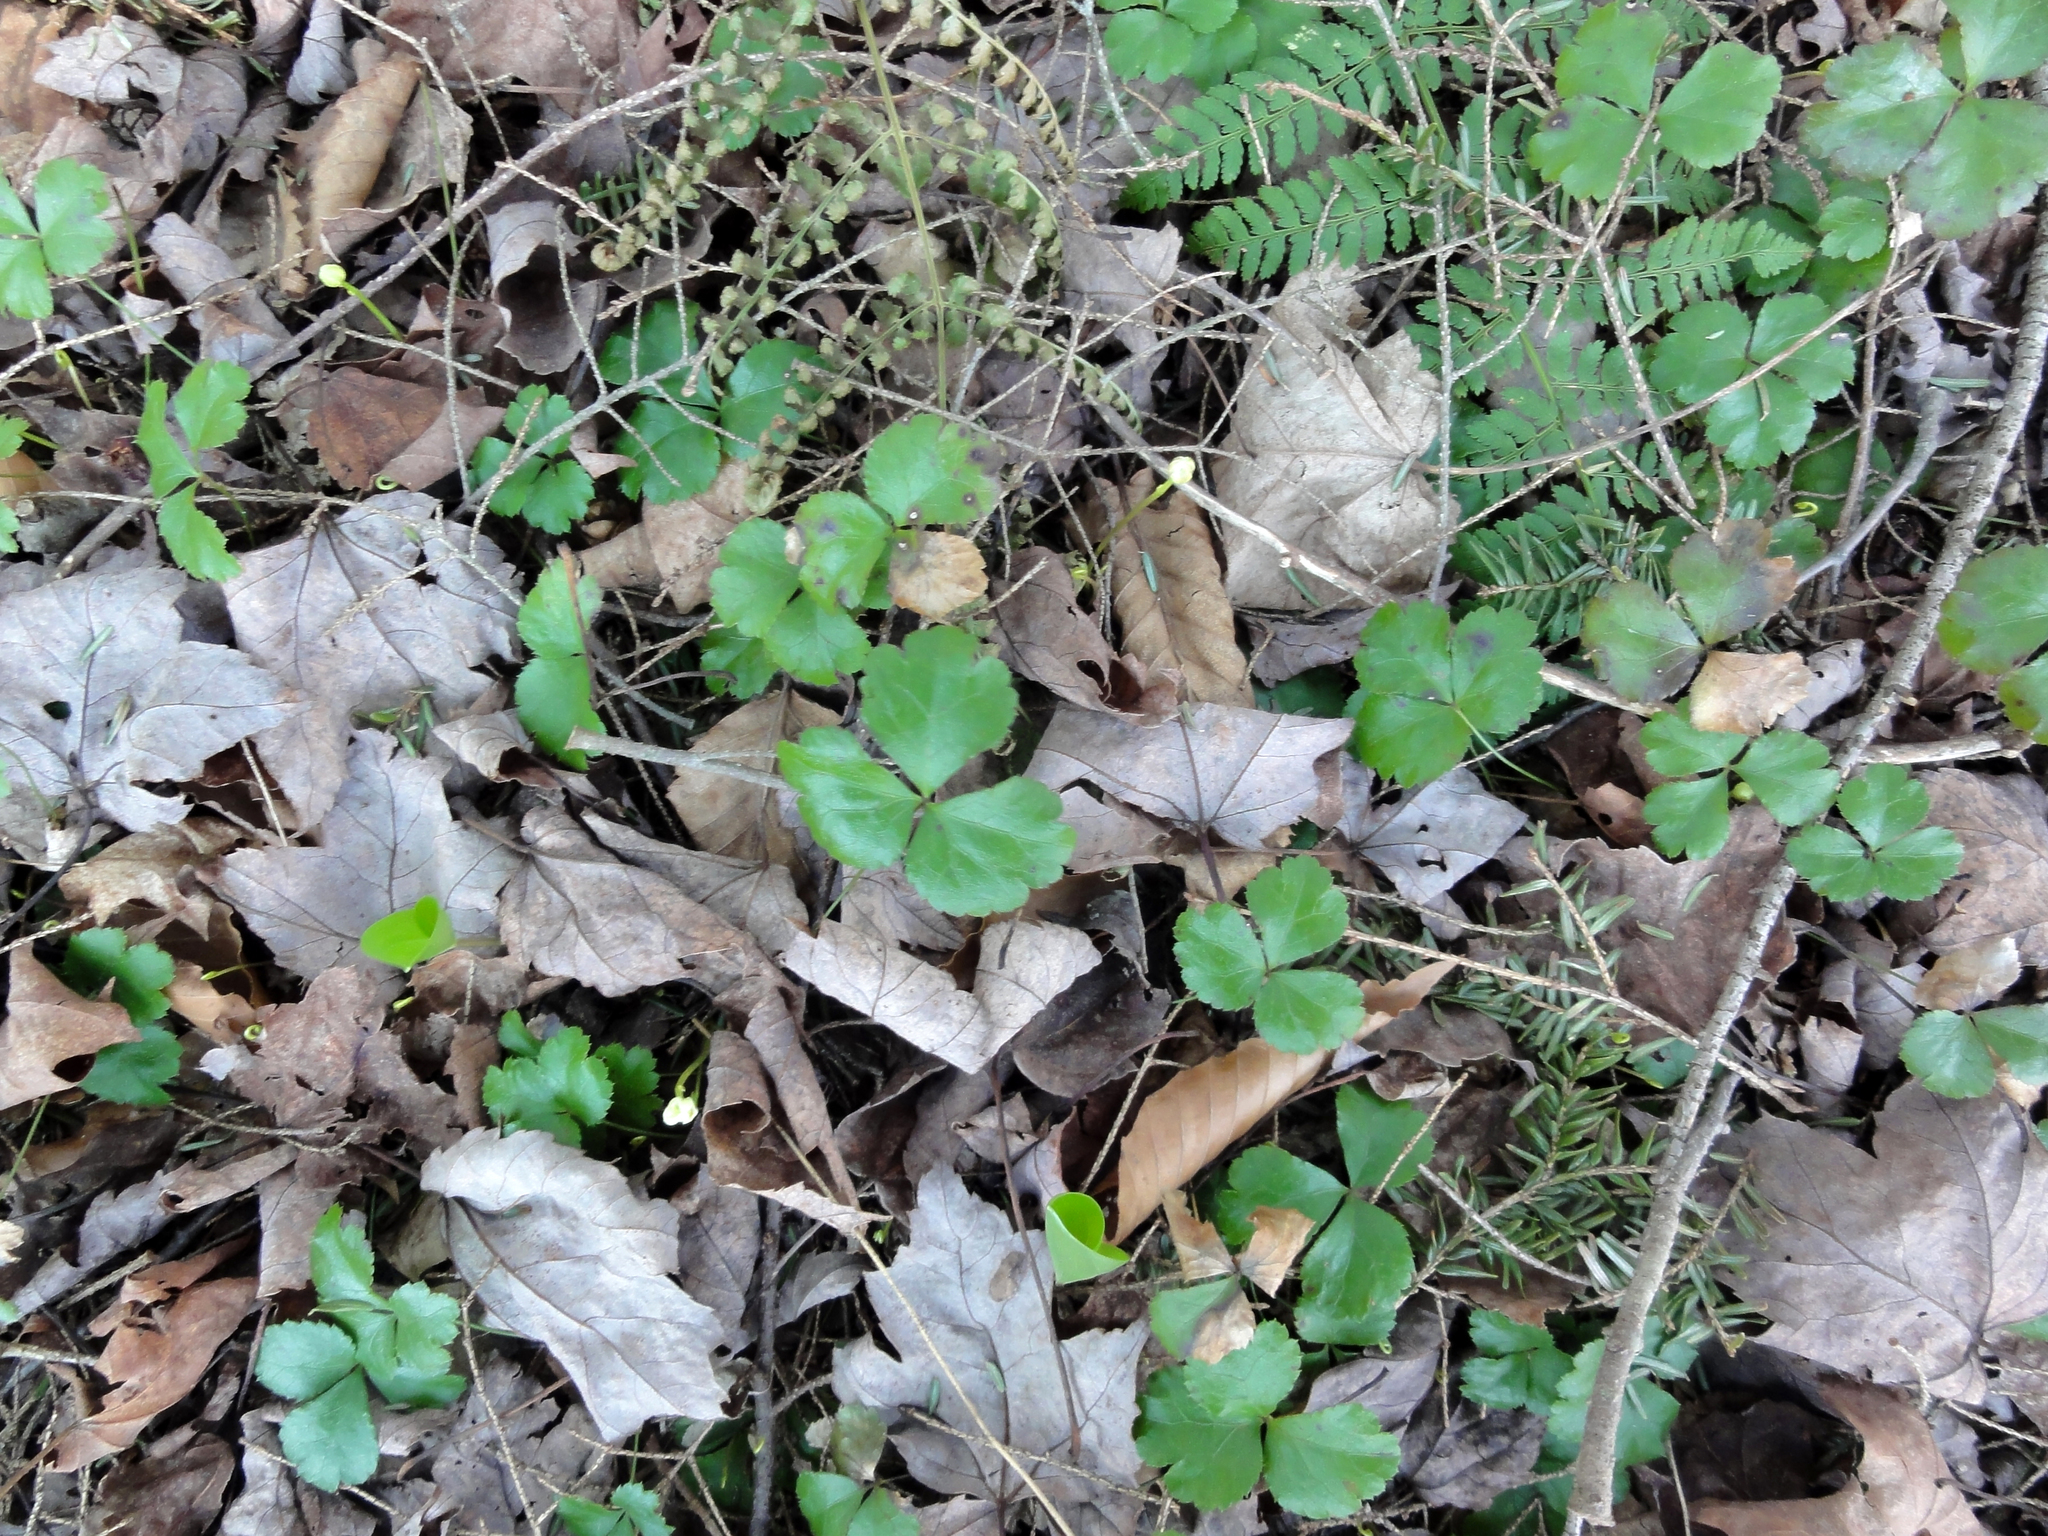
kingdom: Plantae
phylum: Tracheophyta
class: Magnoliopsida
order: Ranunculales
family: Ranunculaceae
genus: Coptis
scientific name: Coptis trifolia
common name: Canker-root
